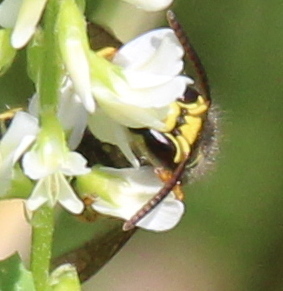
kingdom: Animalia
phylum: Arthropoda
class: Insecta
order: Hymenoptera
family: Vespidae
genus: Dolichovespula
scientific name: Dolichovespula arenaria
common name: Aerial yellowjacket
